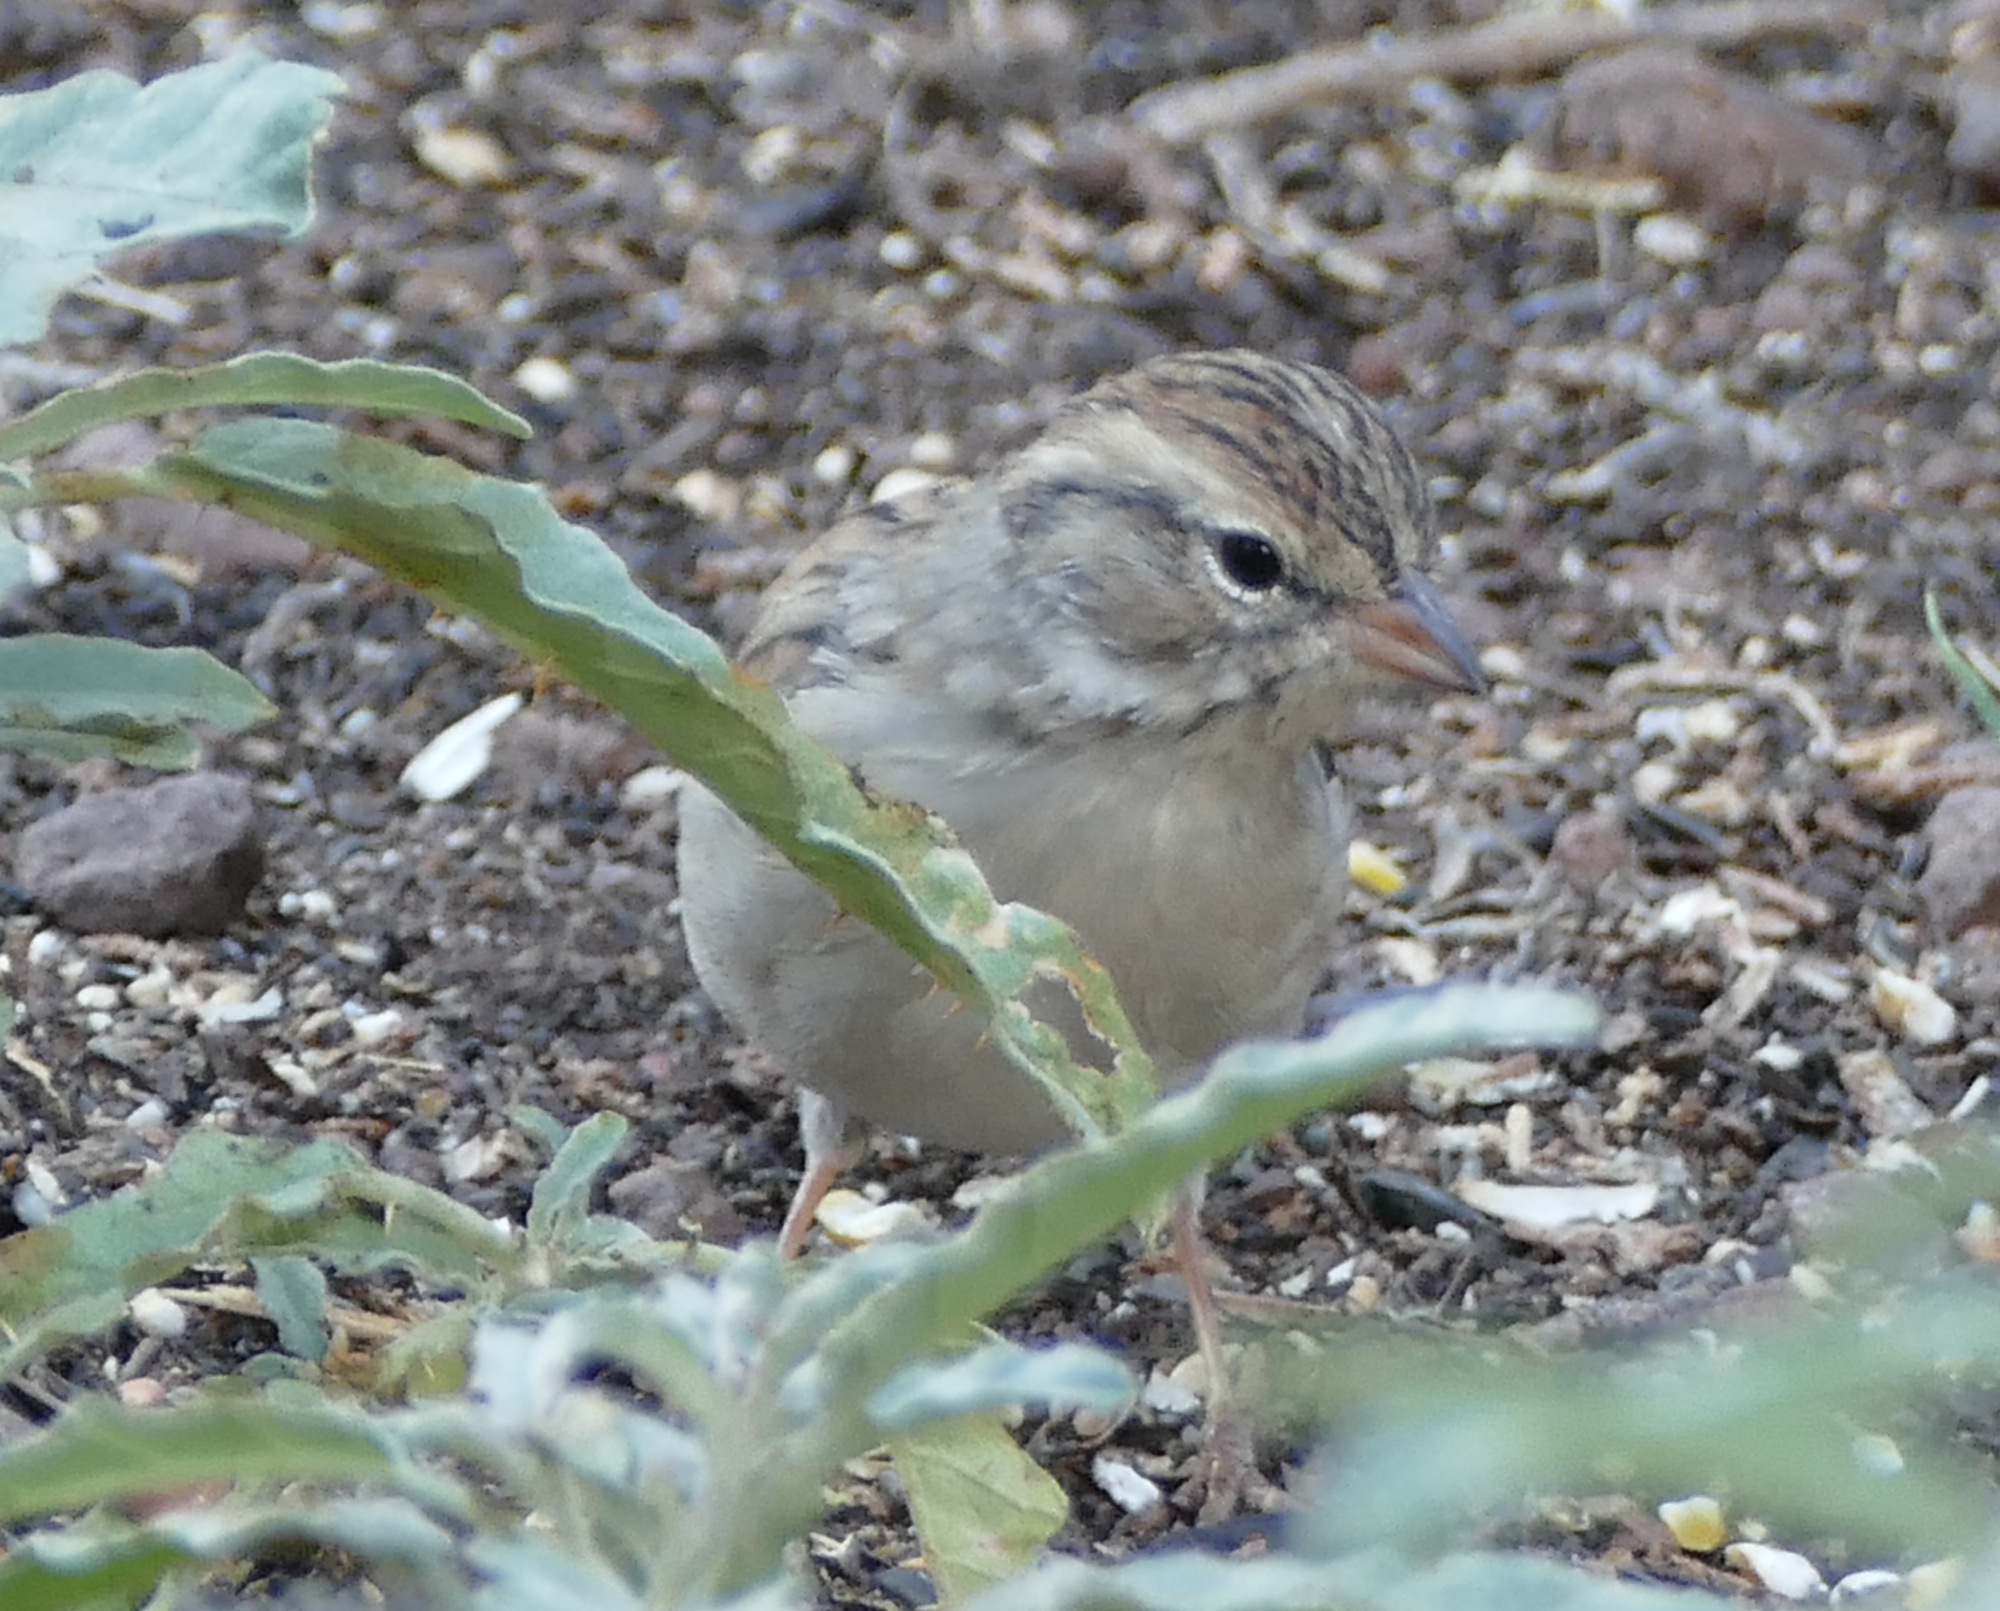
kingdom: Animalia
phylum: Chordata
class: Aves
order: Passeriformes
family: Passerellidae
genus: Spizella
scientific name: Spizella breweri
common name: Brewer's sparrow
